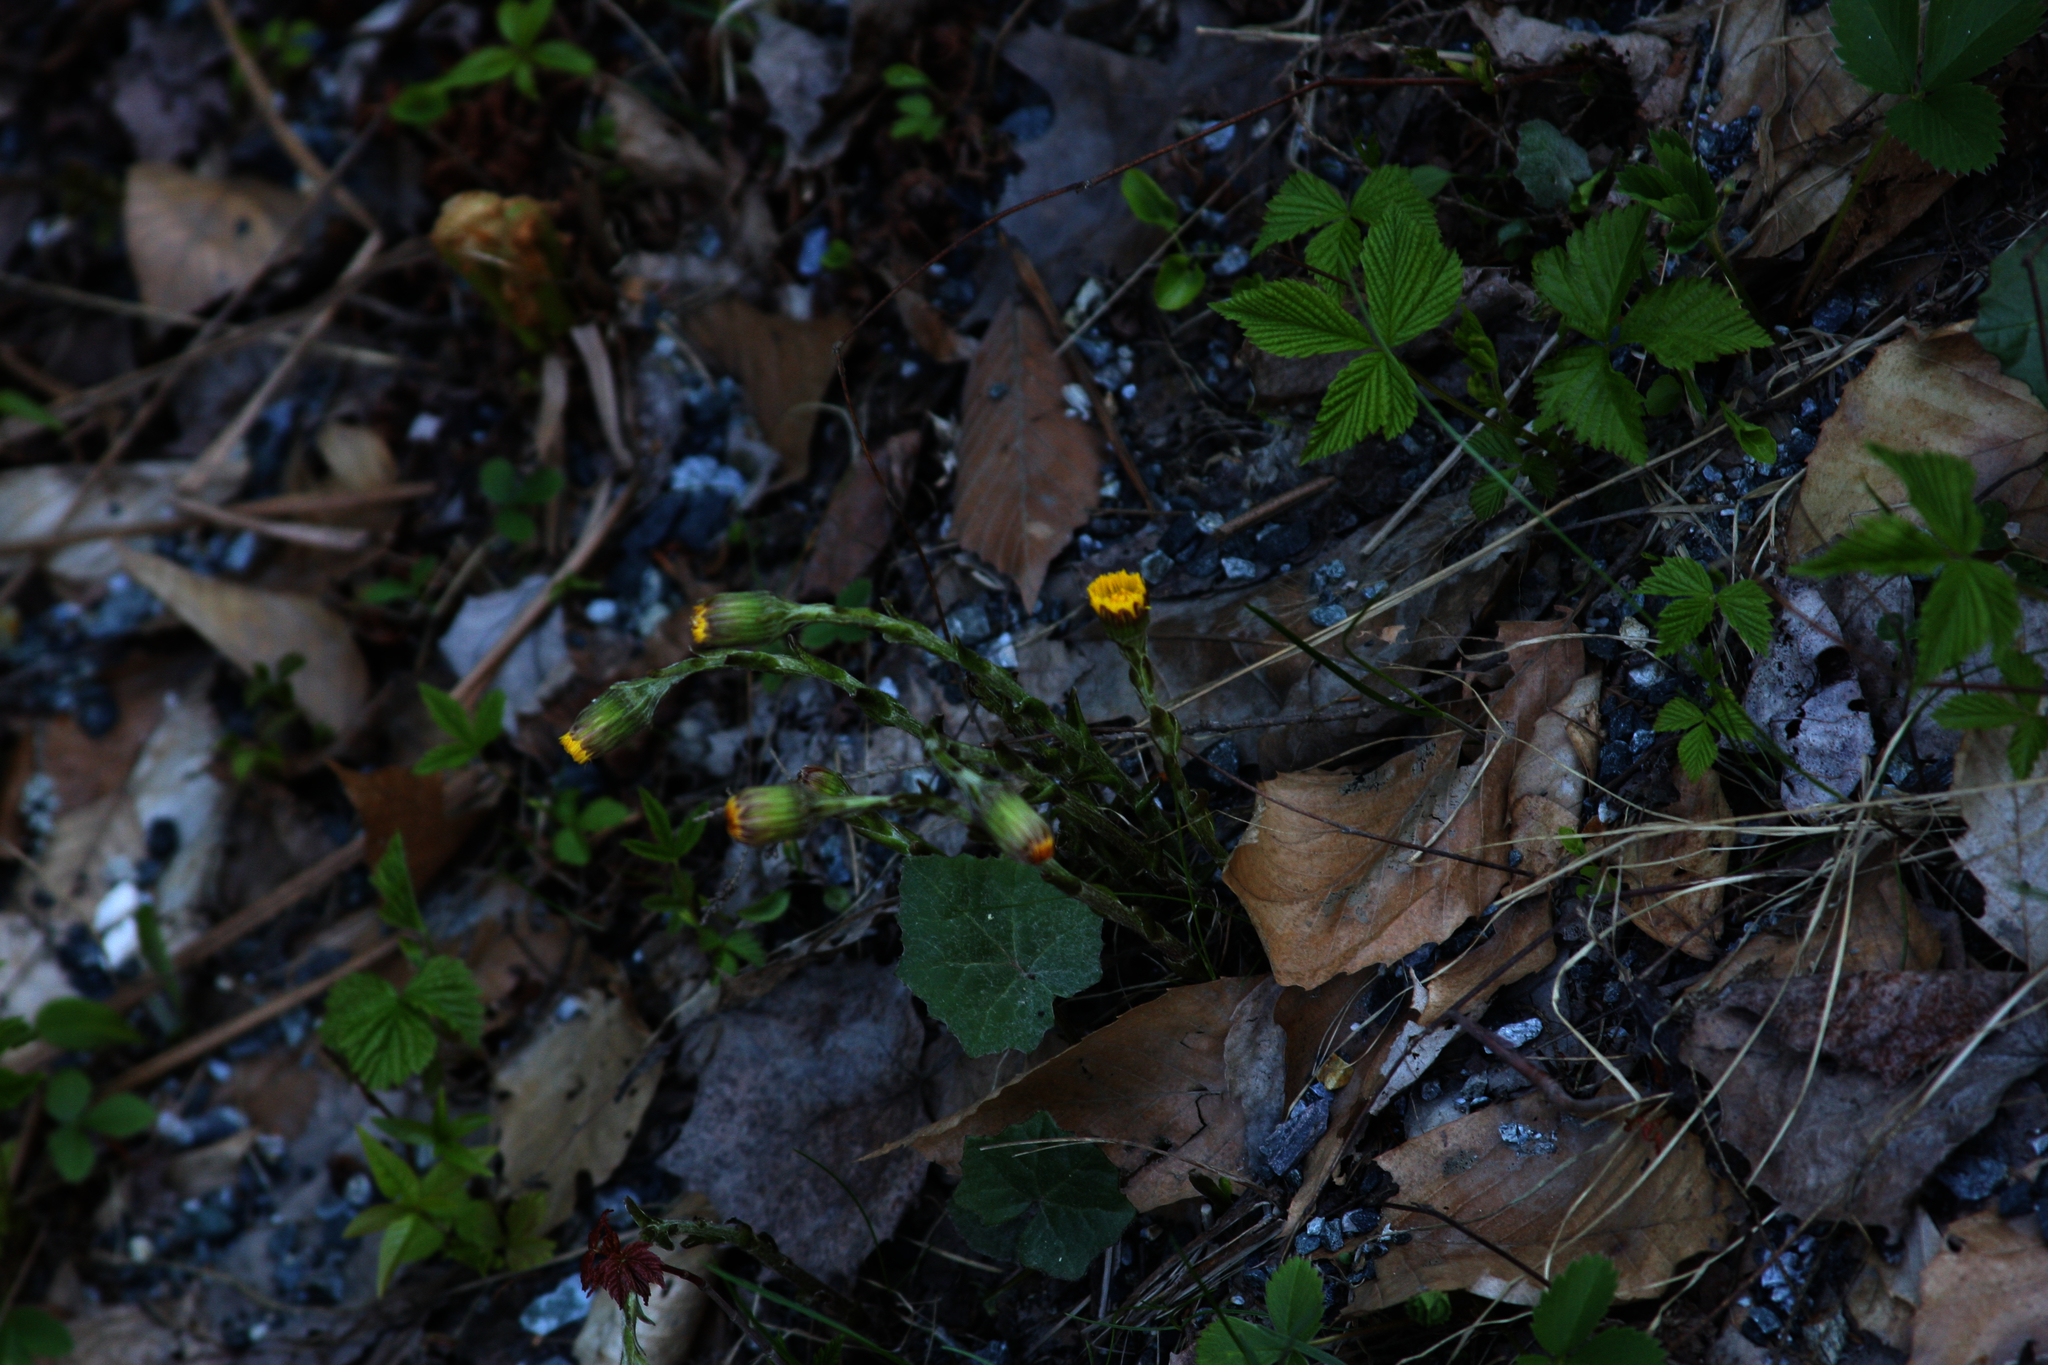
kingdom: Plantae
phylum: Tracheophyta
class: Magnoliopsida
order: Asterales
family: Asteraceae
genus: Tussilago
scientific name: Tussilago farfara
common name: Coltsfoot
